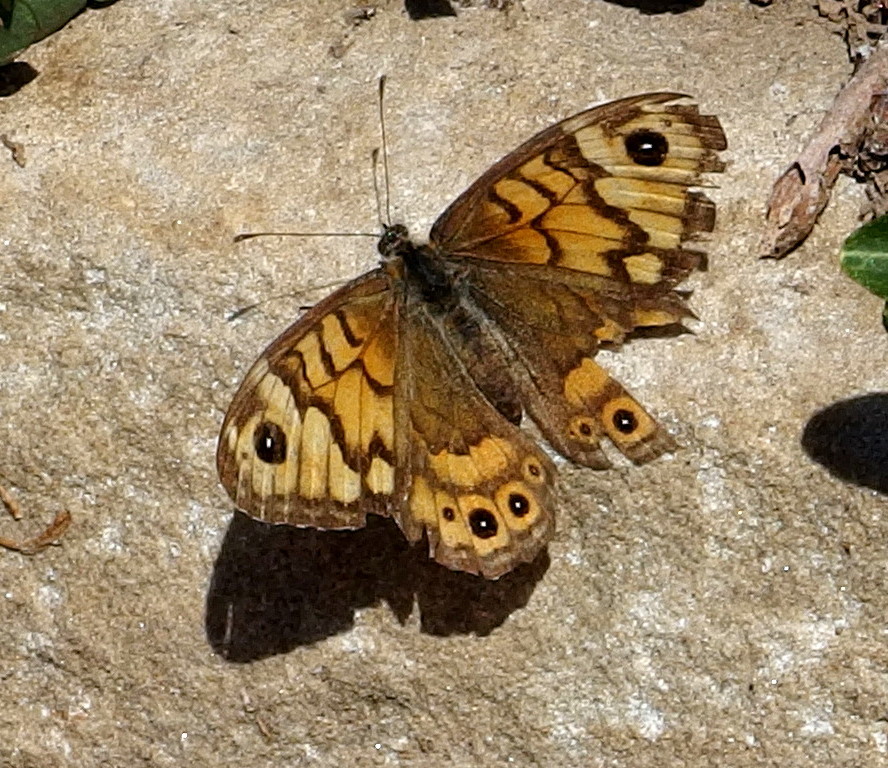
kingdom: Animalia
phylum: Arthropoda
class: Insecta
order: Lepidoptera
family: Nymphalidae
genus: Pararge
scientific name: Pararge Lasiommata megera
